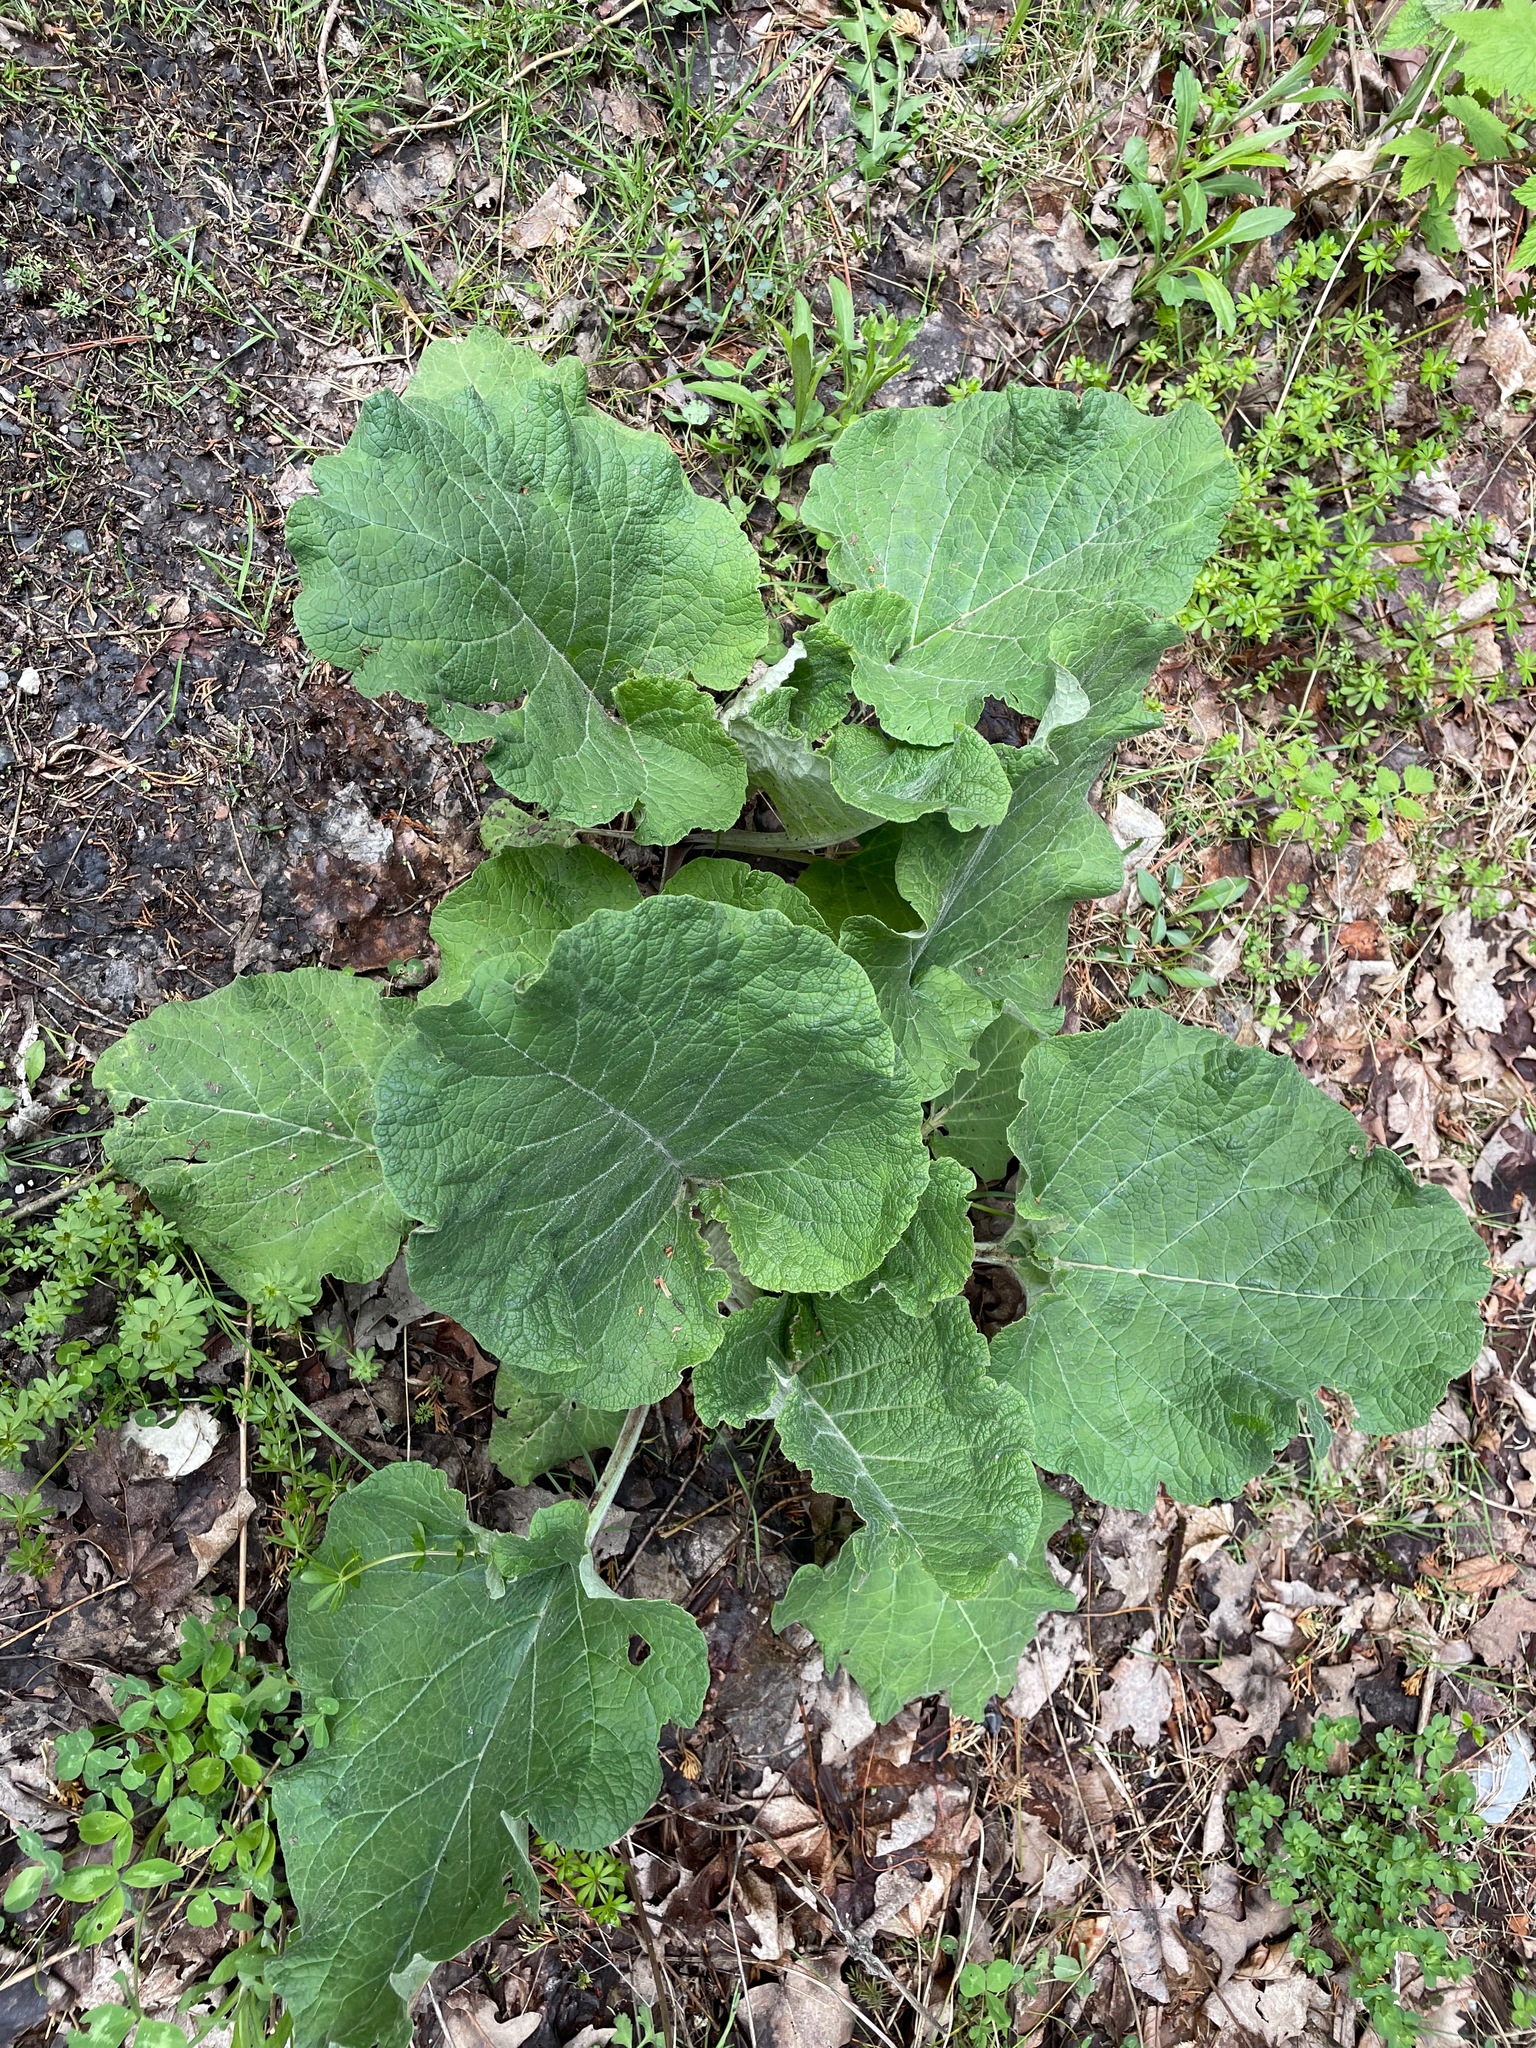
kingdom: Plantae
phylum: Tracheophyta
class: Magnoliopsida
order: Asterales
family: Asteraceae
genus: Arctium
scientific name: Arctium
